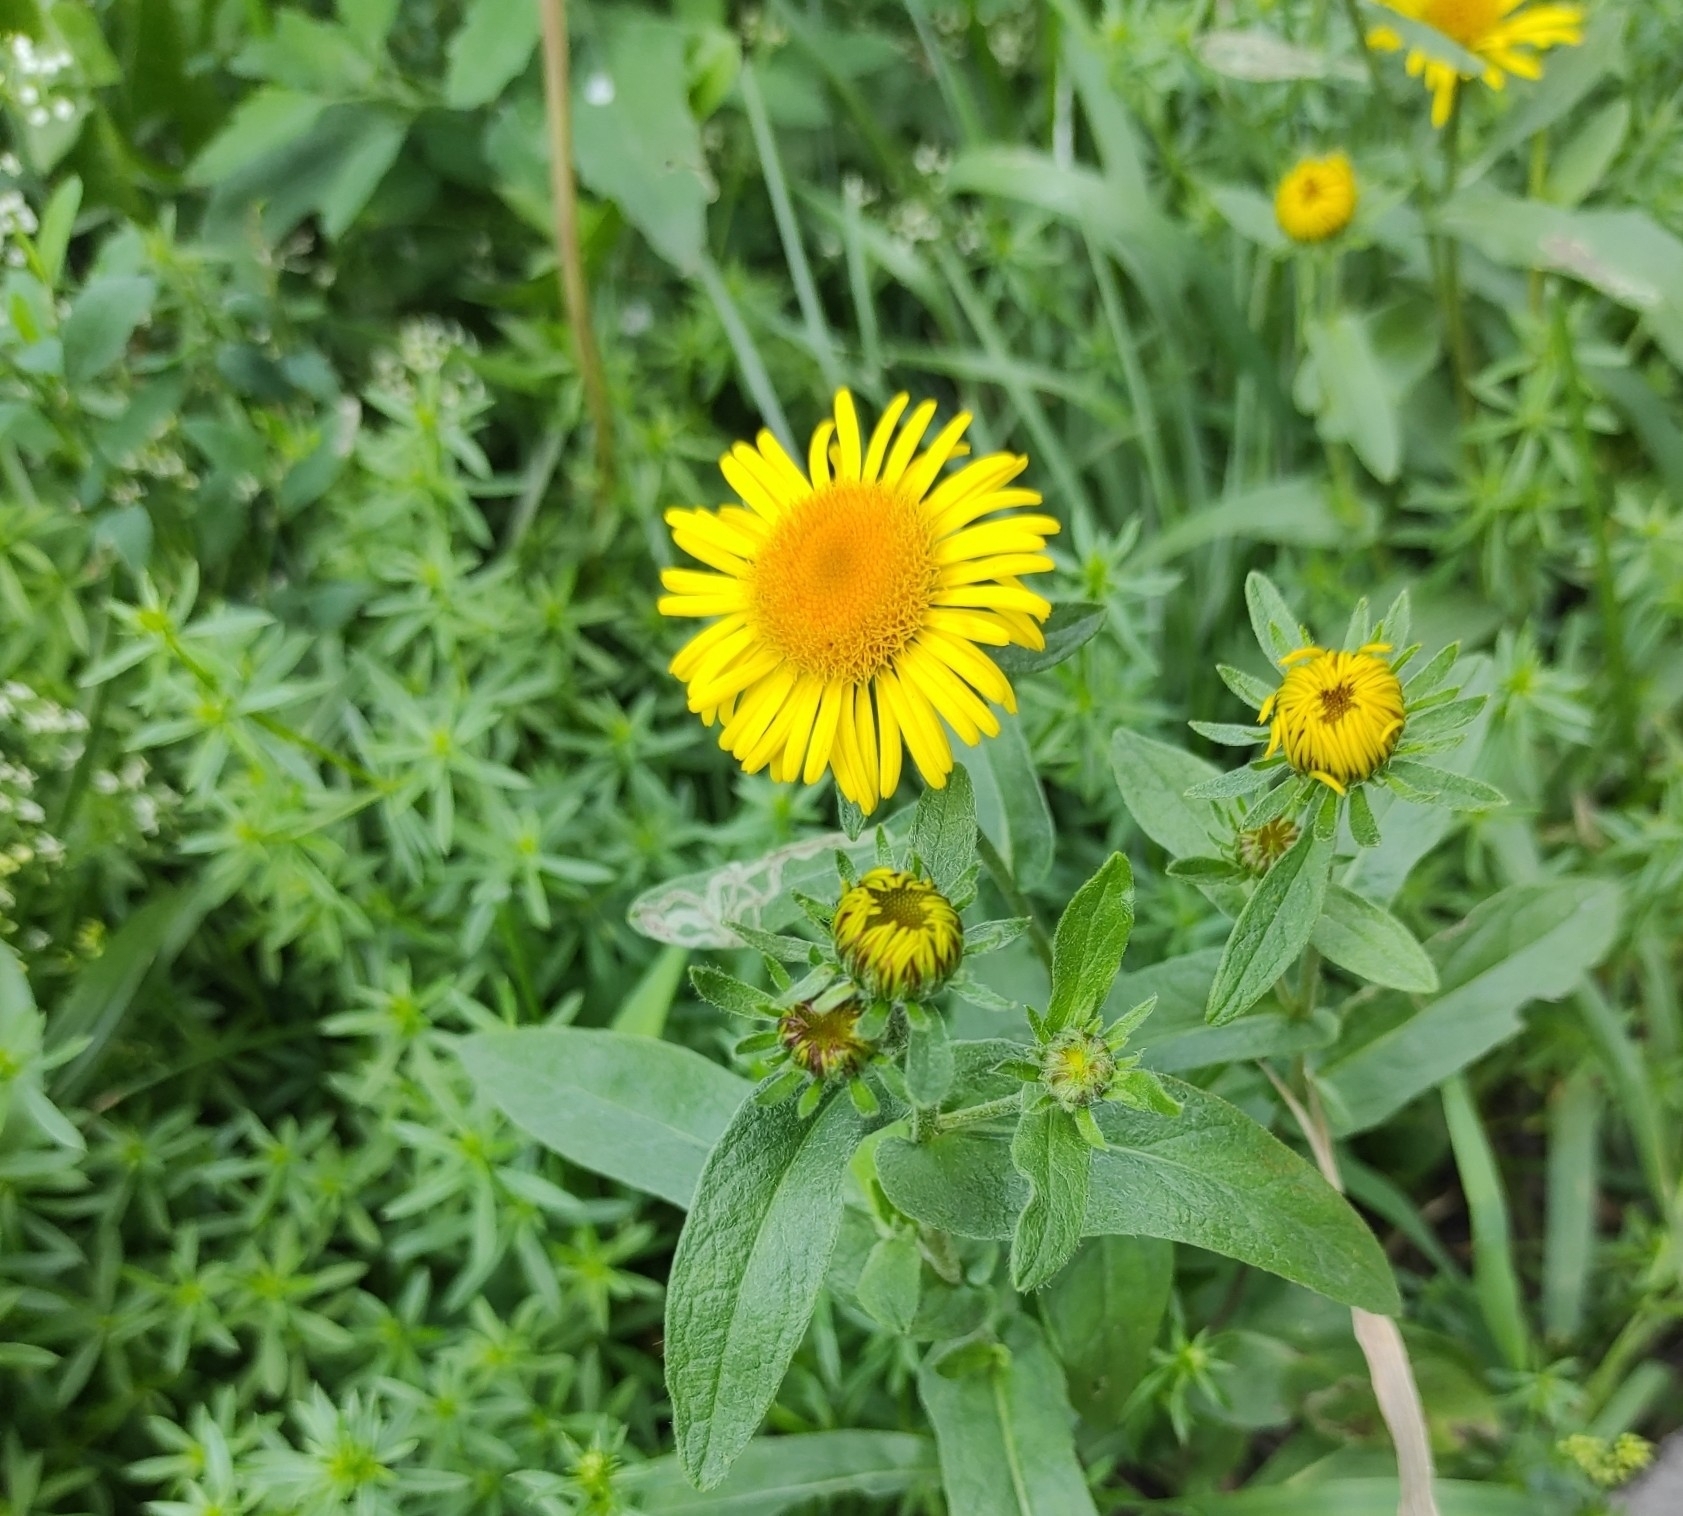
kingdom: Plantae
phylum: Tracheophyta
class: Magnoliopsida
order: Asterales
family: Asteraceae
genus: Pentanema
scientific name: Pentanema britannicum
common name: British elecampane
